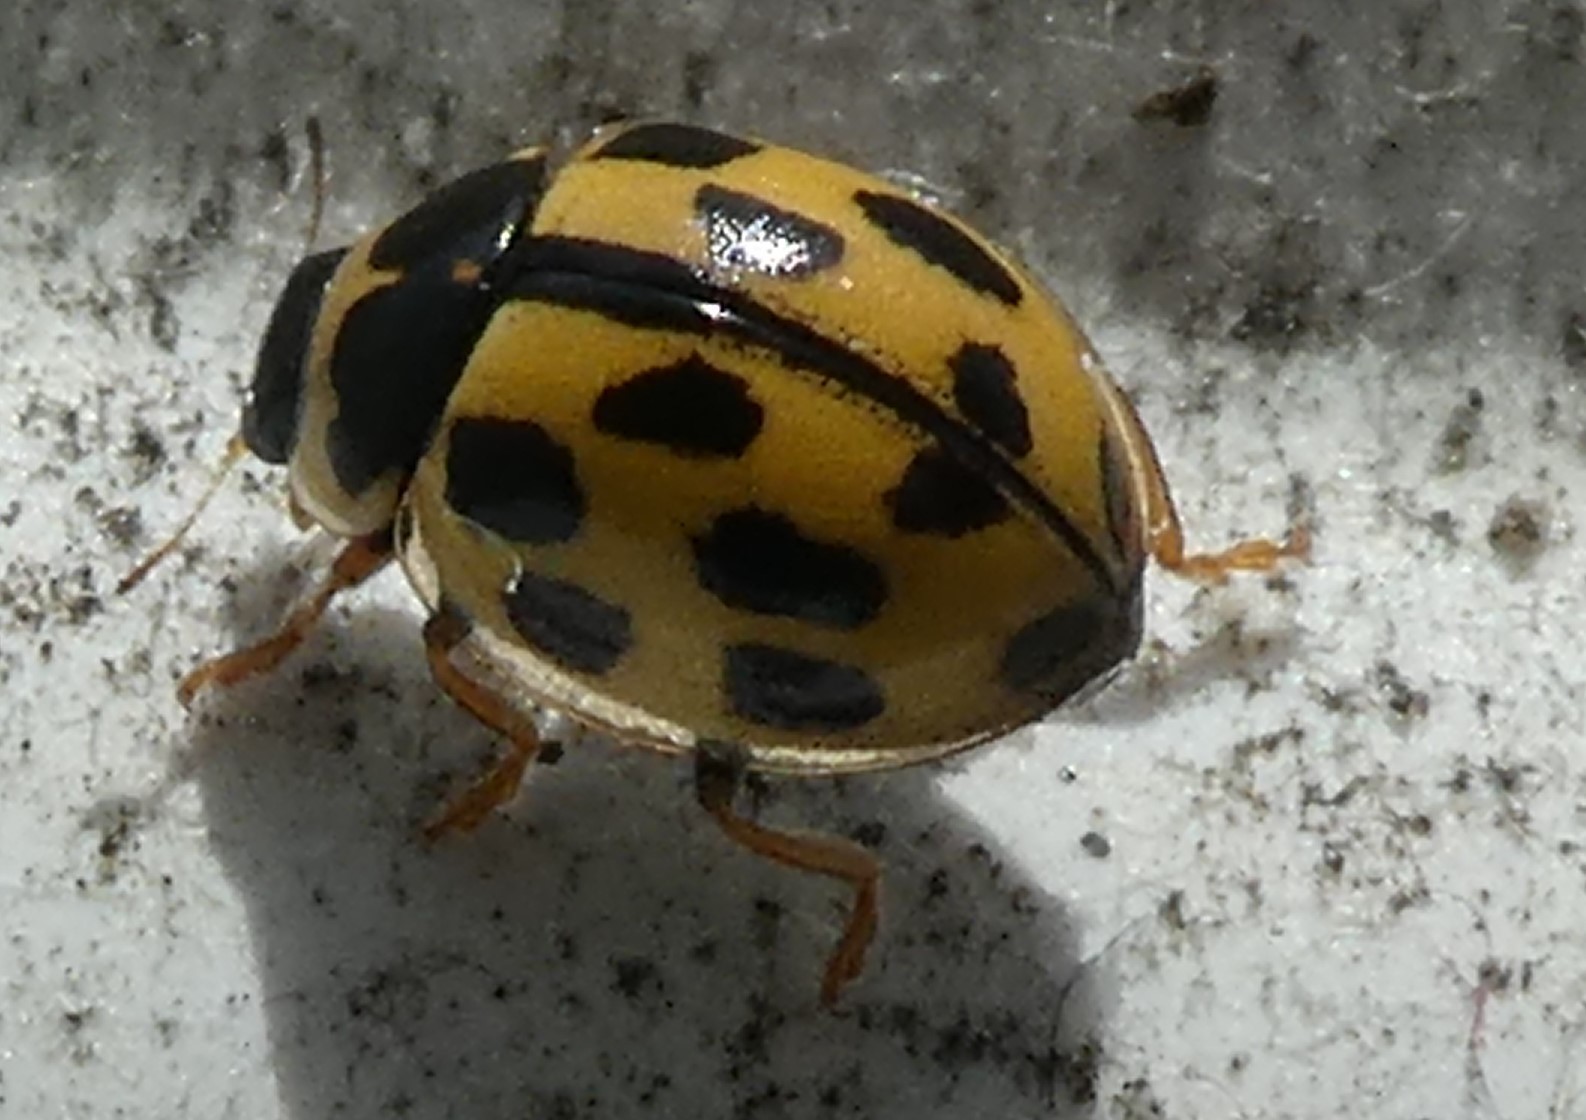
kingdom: Animalia
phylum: Arthropoda
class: Insecta
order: Coleoptera
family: Coccinellidae
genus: Propylaea
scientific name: Propylaea quatuordecimpunctata
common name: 14-spotted ladybird beetle
